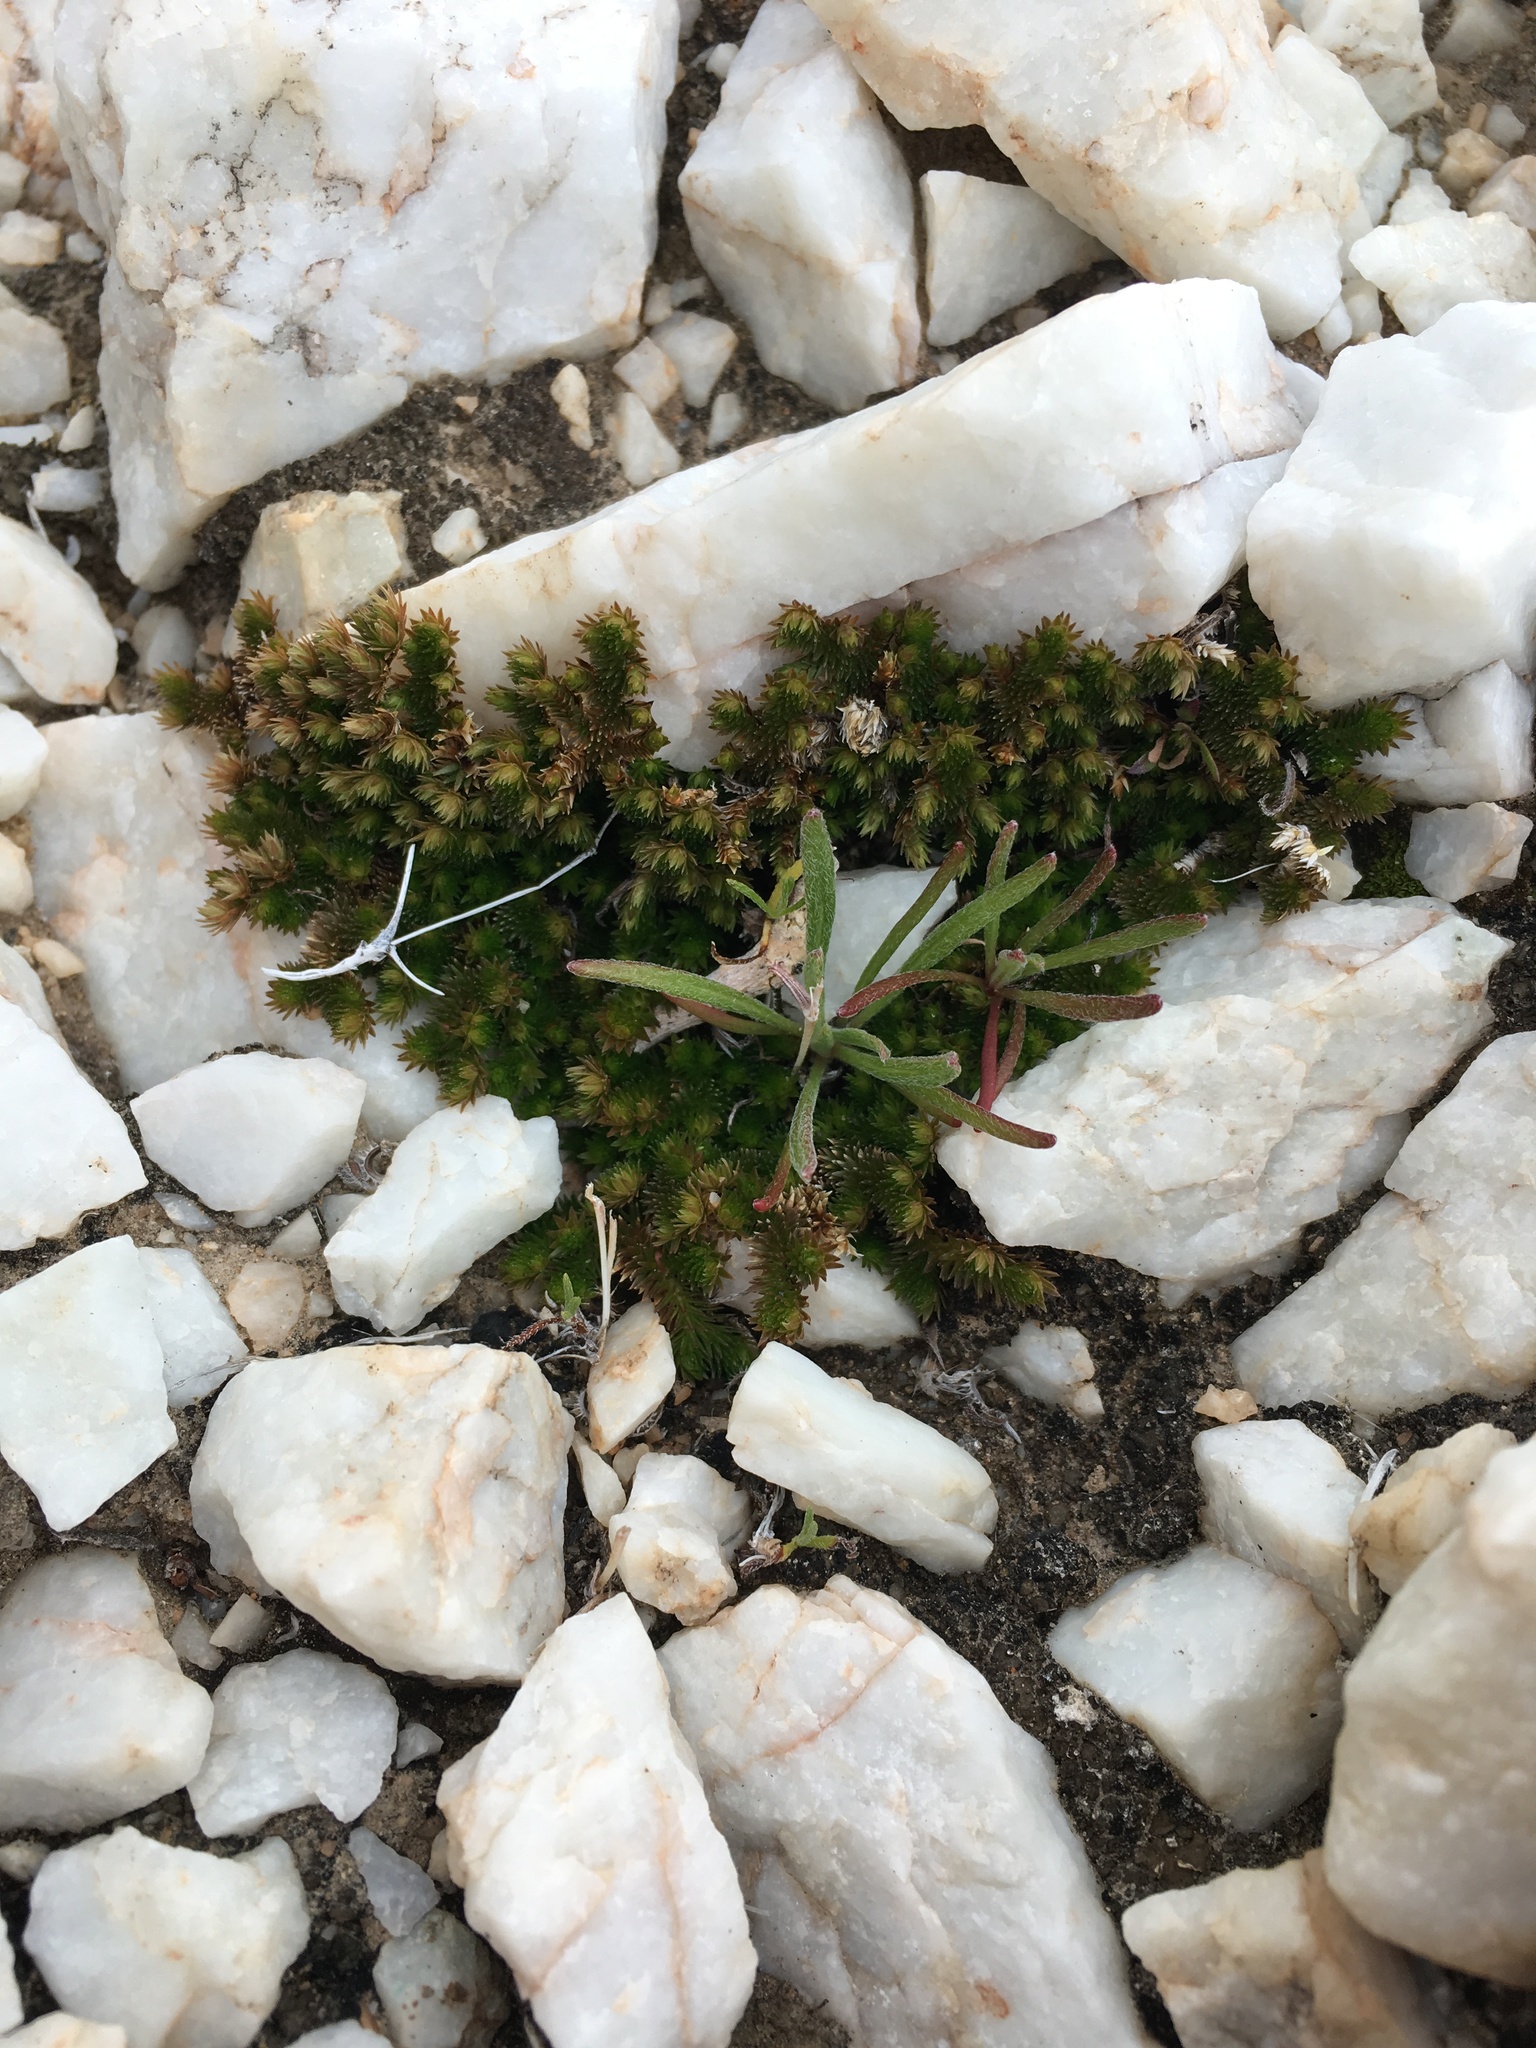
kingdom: Plantae
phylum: Tracheophyta
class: Lycopodiopsida
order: Selaginellales
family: Selaginellaceae
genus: Selaginella
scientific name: Selaginella eremophila
